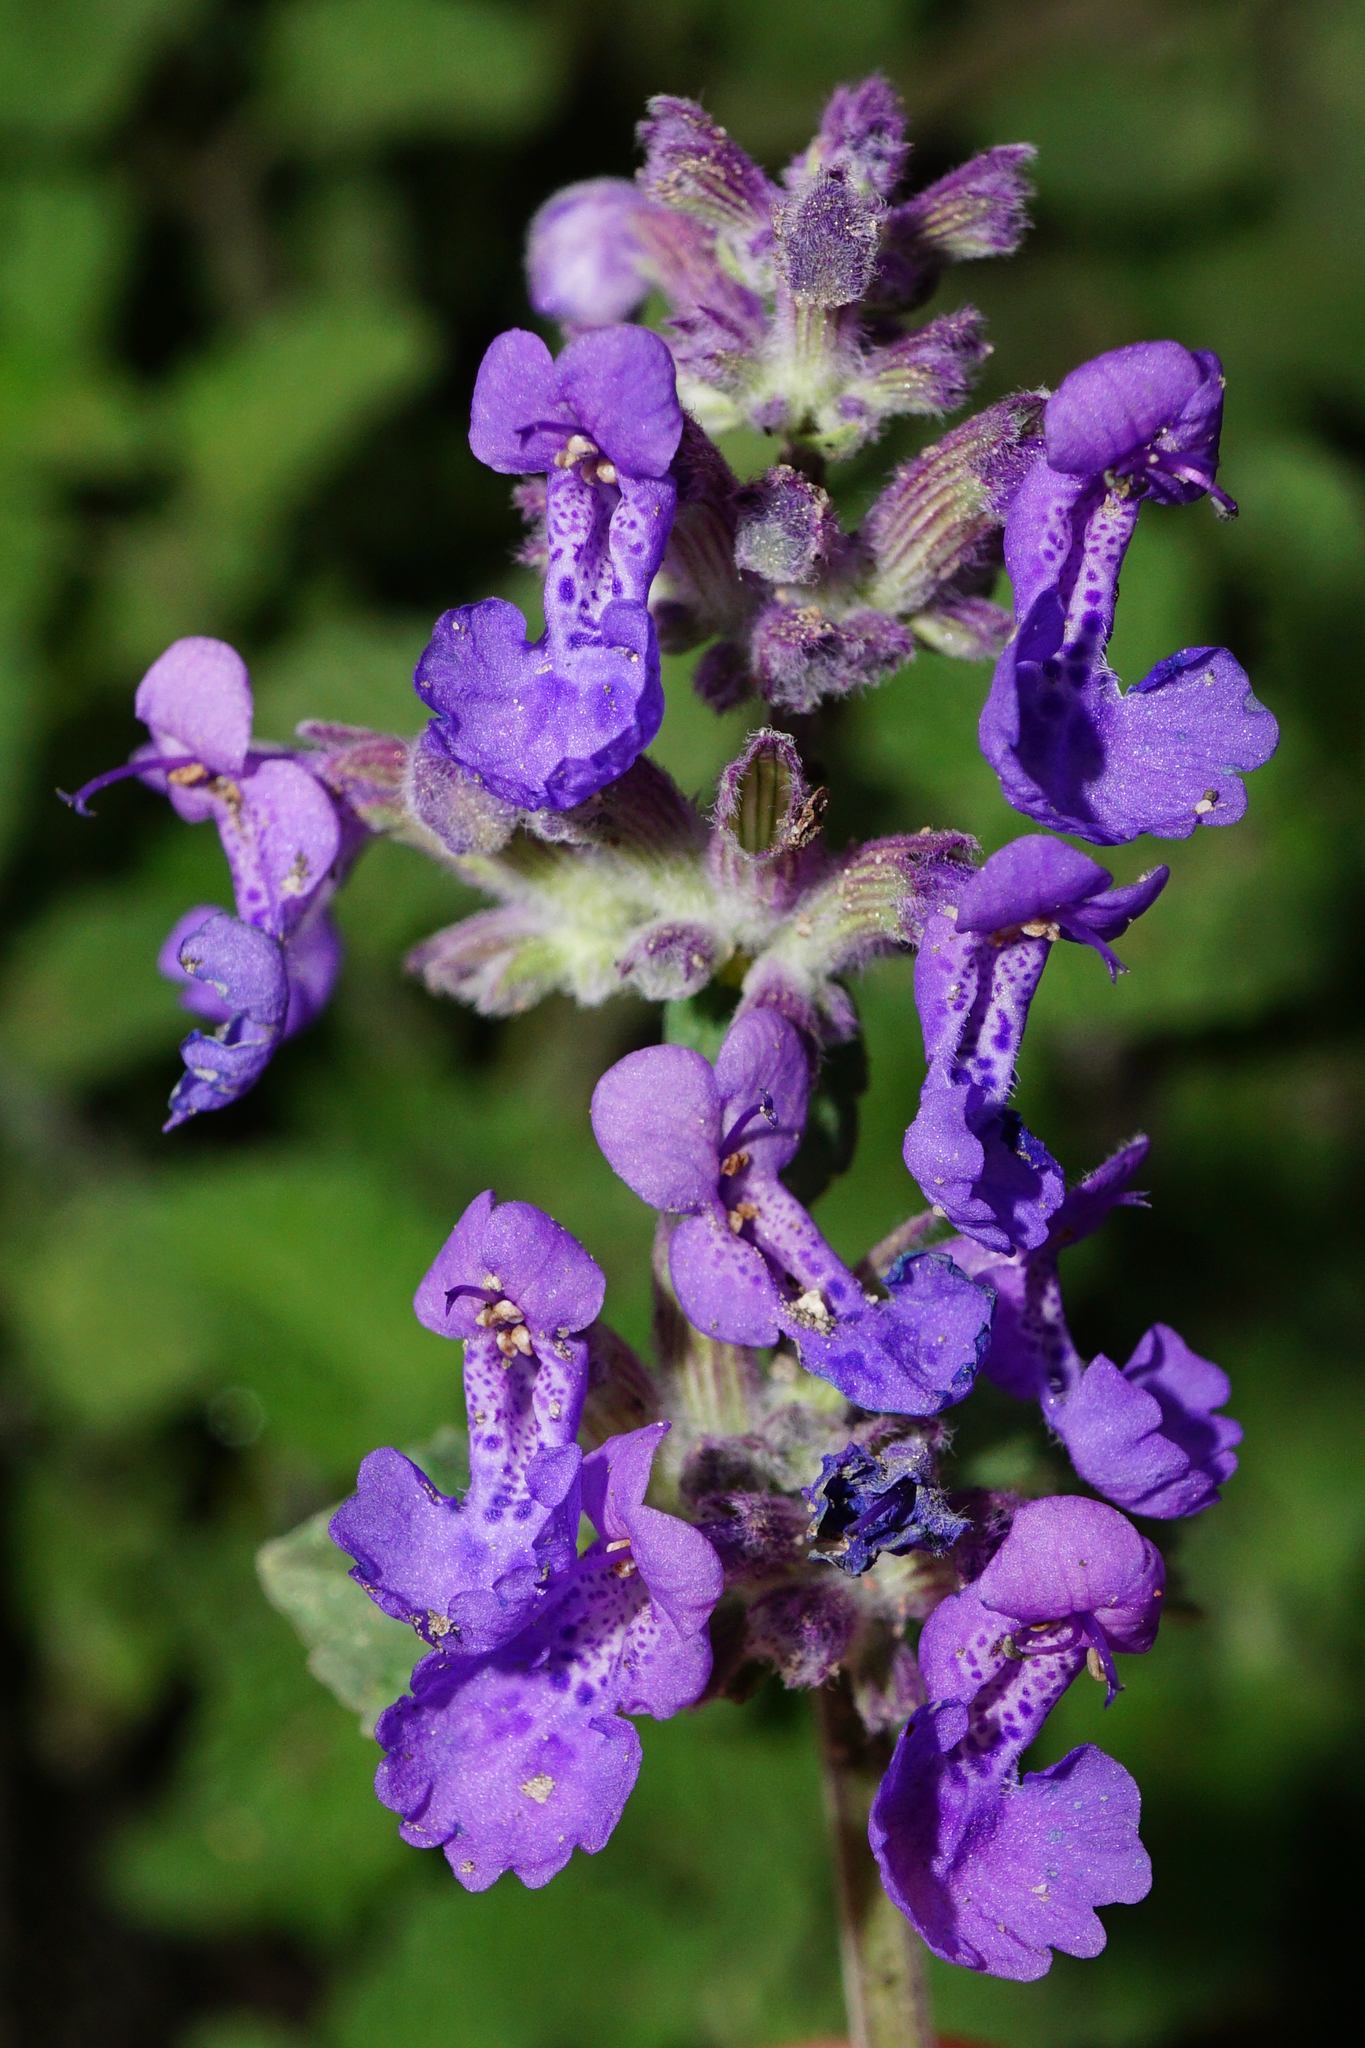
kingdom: Plantae
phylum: Tracheophyta
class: Magnoliopsida
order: Lamiales
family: Lamiaceae
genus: Nepeta
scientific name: Nepeta racemosa
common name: Raceme catnip
